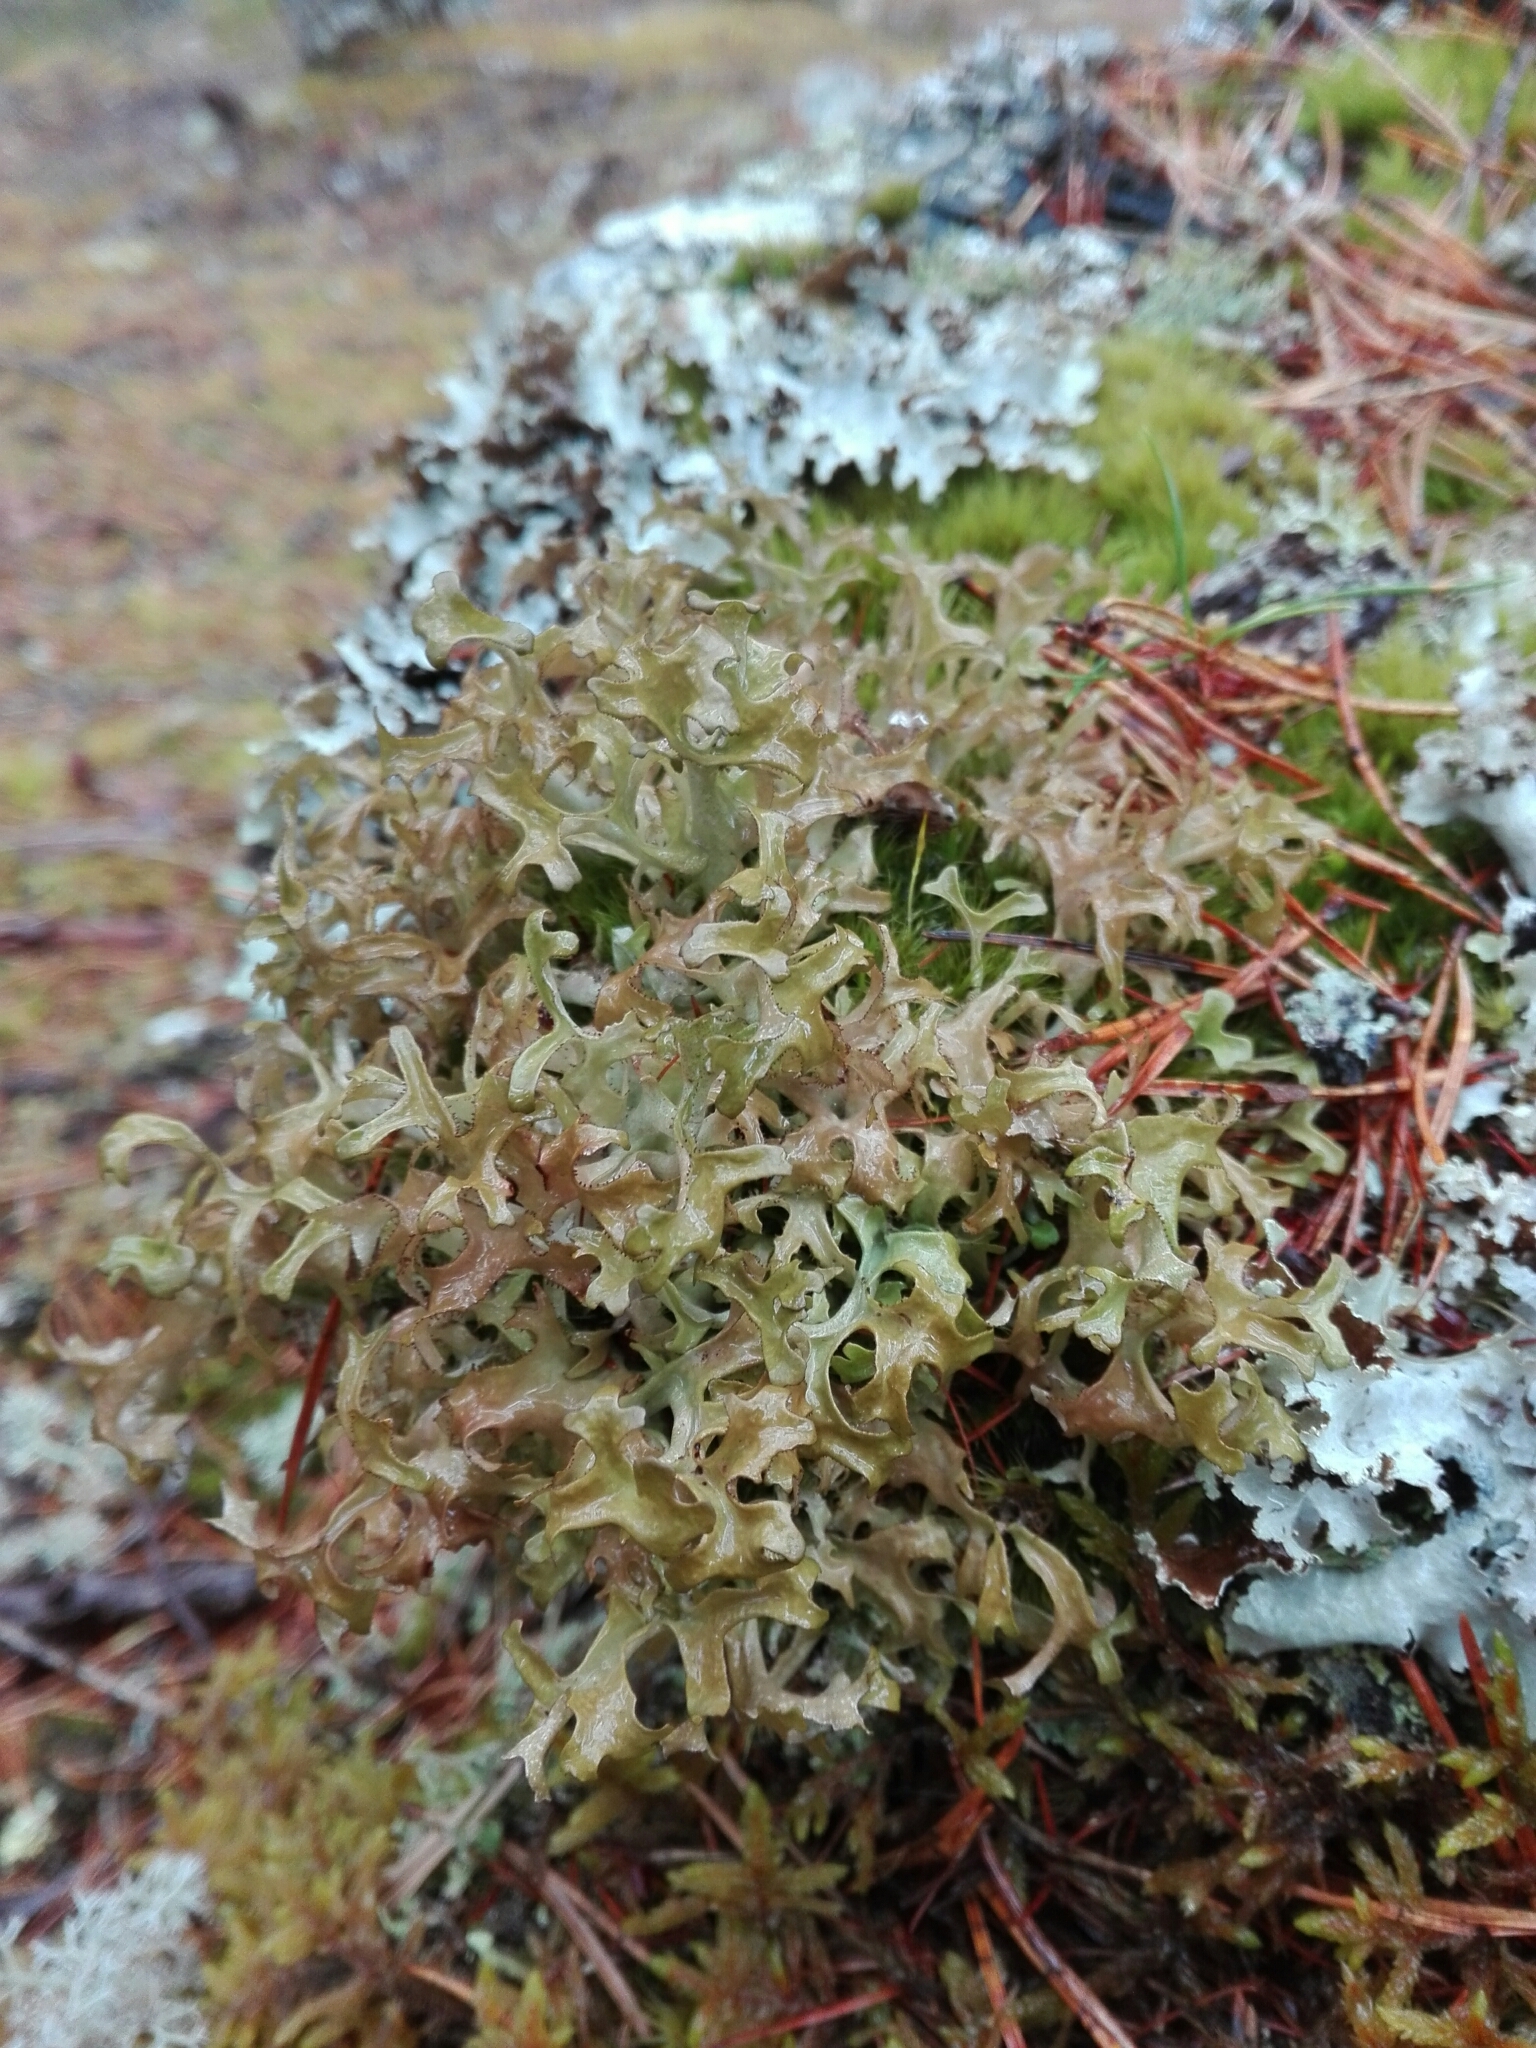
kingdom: Fungi
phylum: Ascomycota
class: Lecanoromycetes
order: Lecanorales
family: Parmeliaceae
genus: Cetraria
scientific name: Cetraria islandica
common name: Iceland lichen
